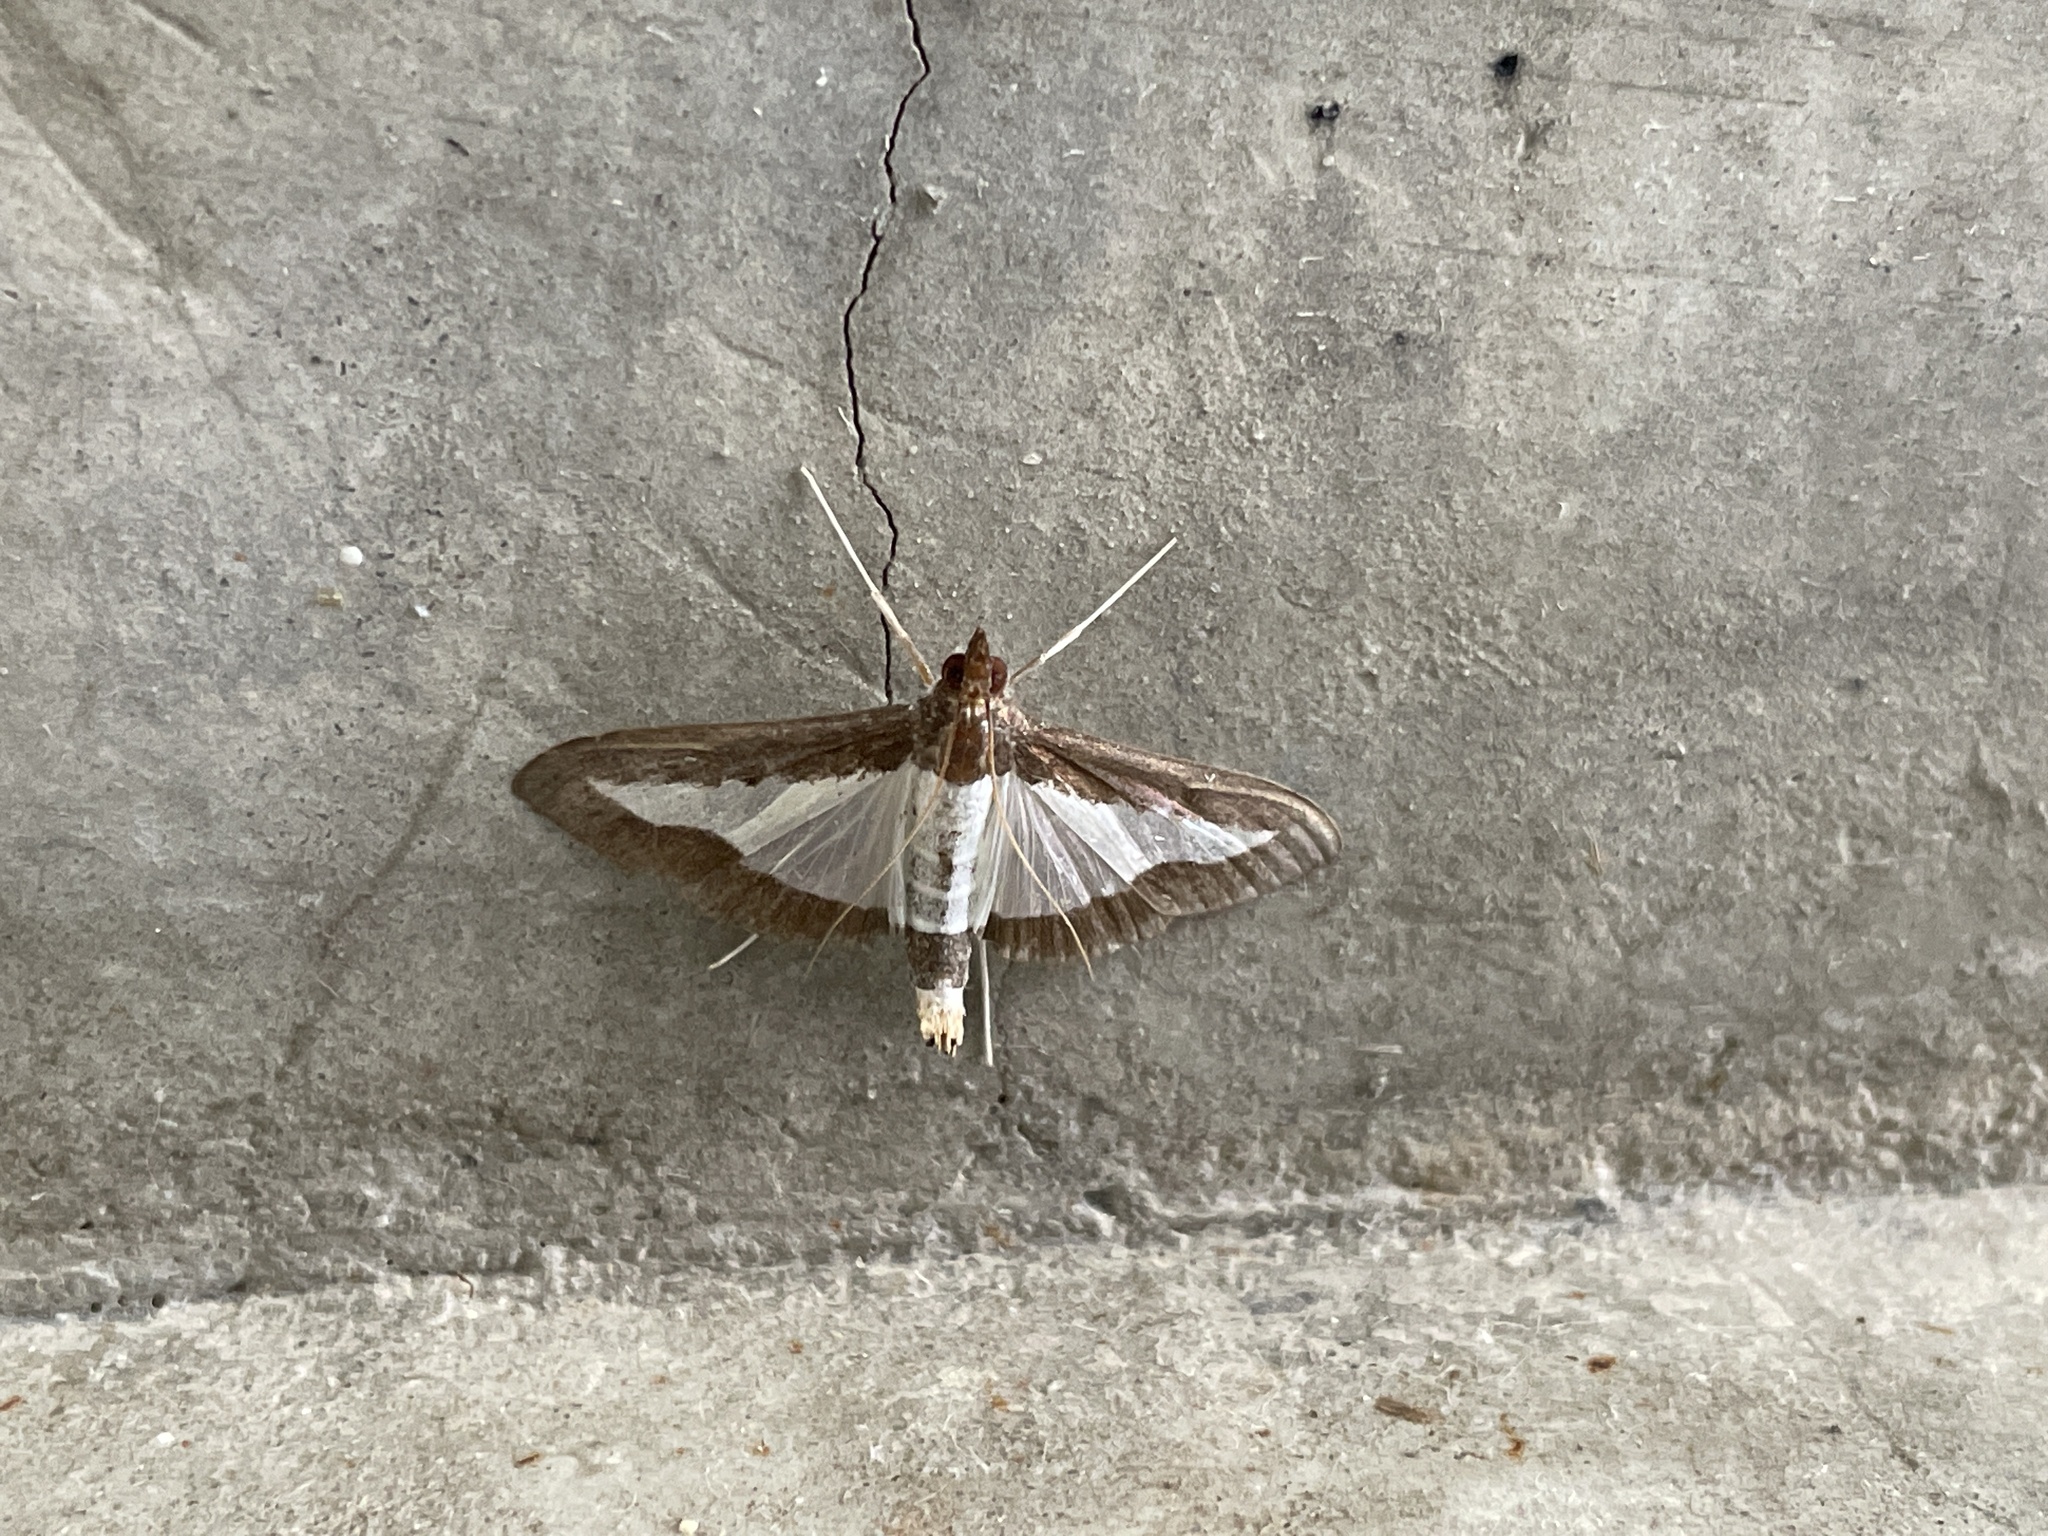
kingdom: Animalia
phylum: Arthropoda
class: Insecta
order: Lepidoptera
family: Crambidae
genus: Diaphania
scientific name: Diaphania indica
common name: Cucumber moth
